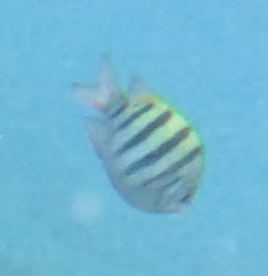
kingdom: Animalia
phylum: Chordata
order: Perciformes
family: Pomacentridae
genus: Abudefduf
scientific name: Abudefduf vaigiensis
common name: Indo-pacific sergeant
